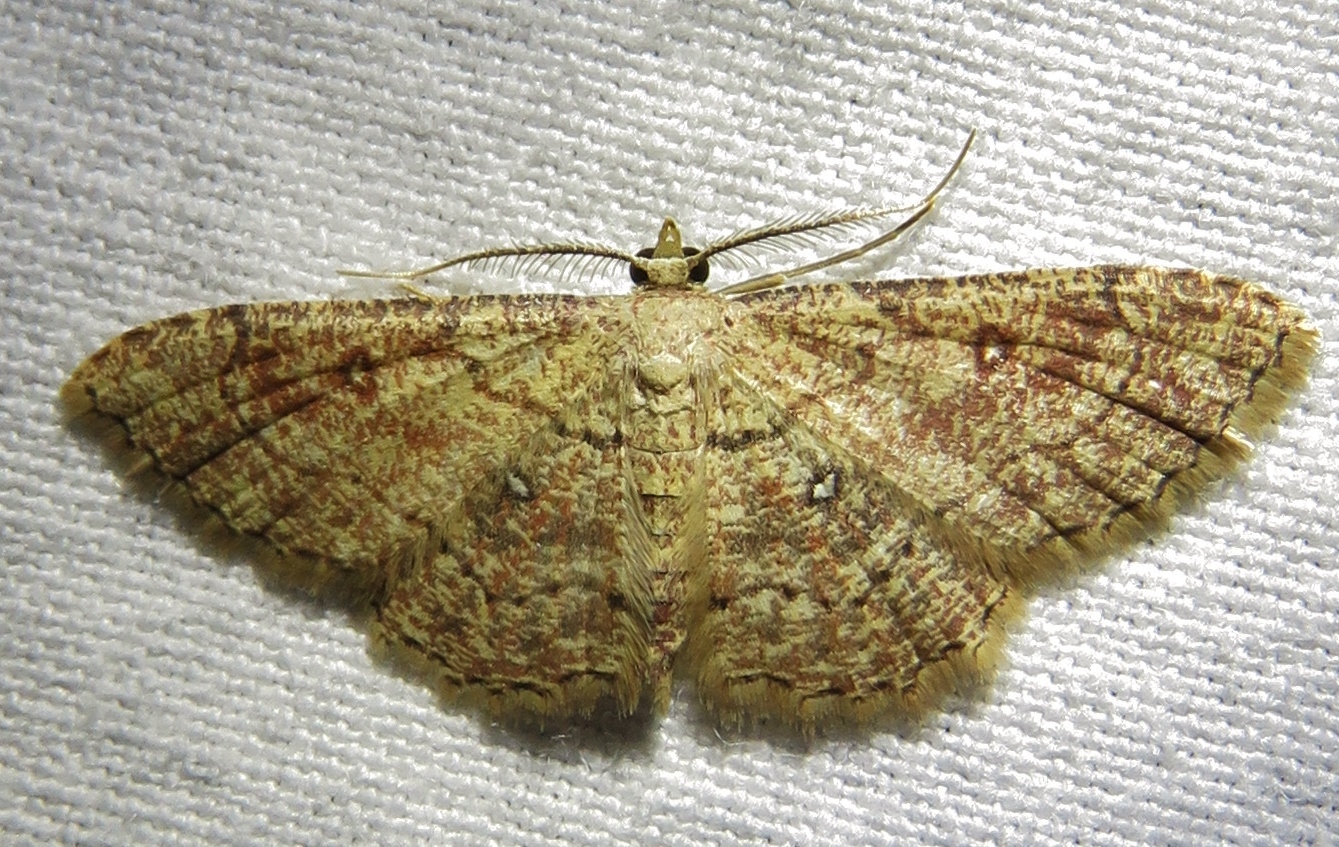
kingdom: Animalia
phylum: Arthropoda
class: Insecta
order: Lepidoptera
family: Geometridae
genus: Cyclophora
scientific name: Cyclophora nanaria
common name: Cankerworm
